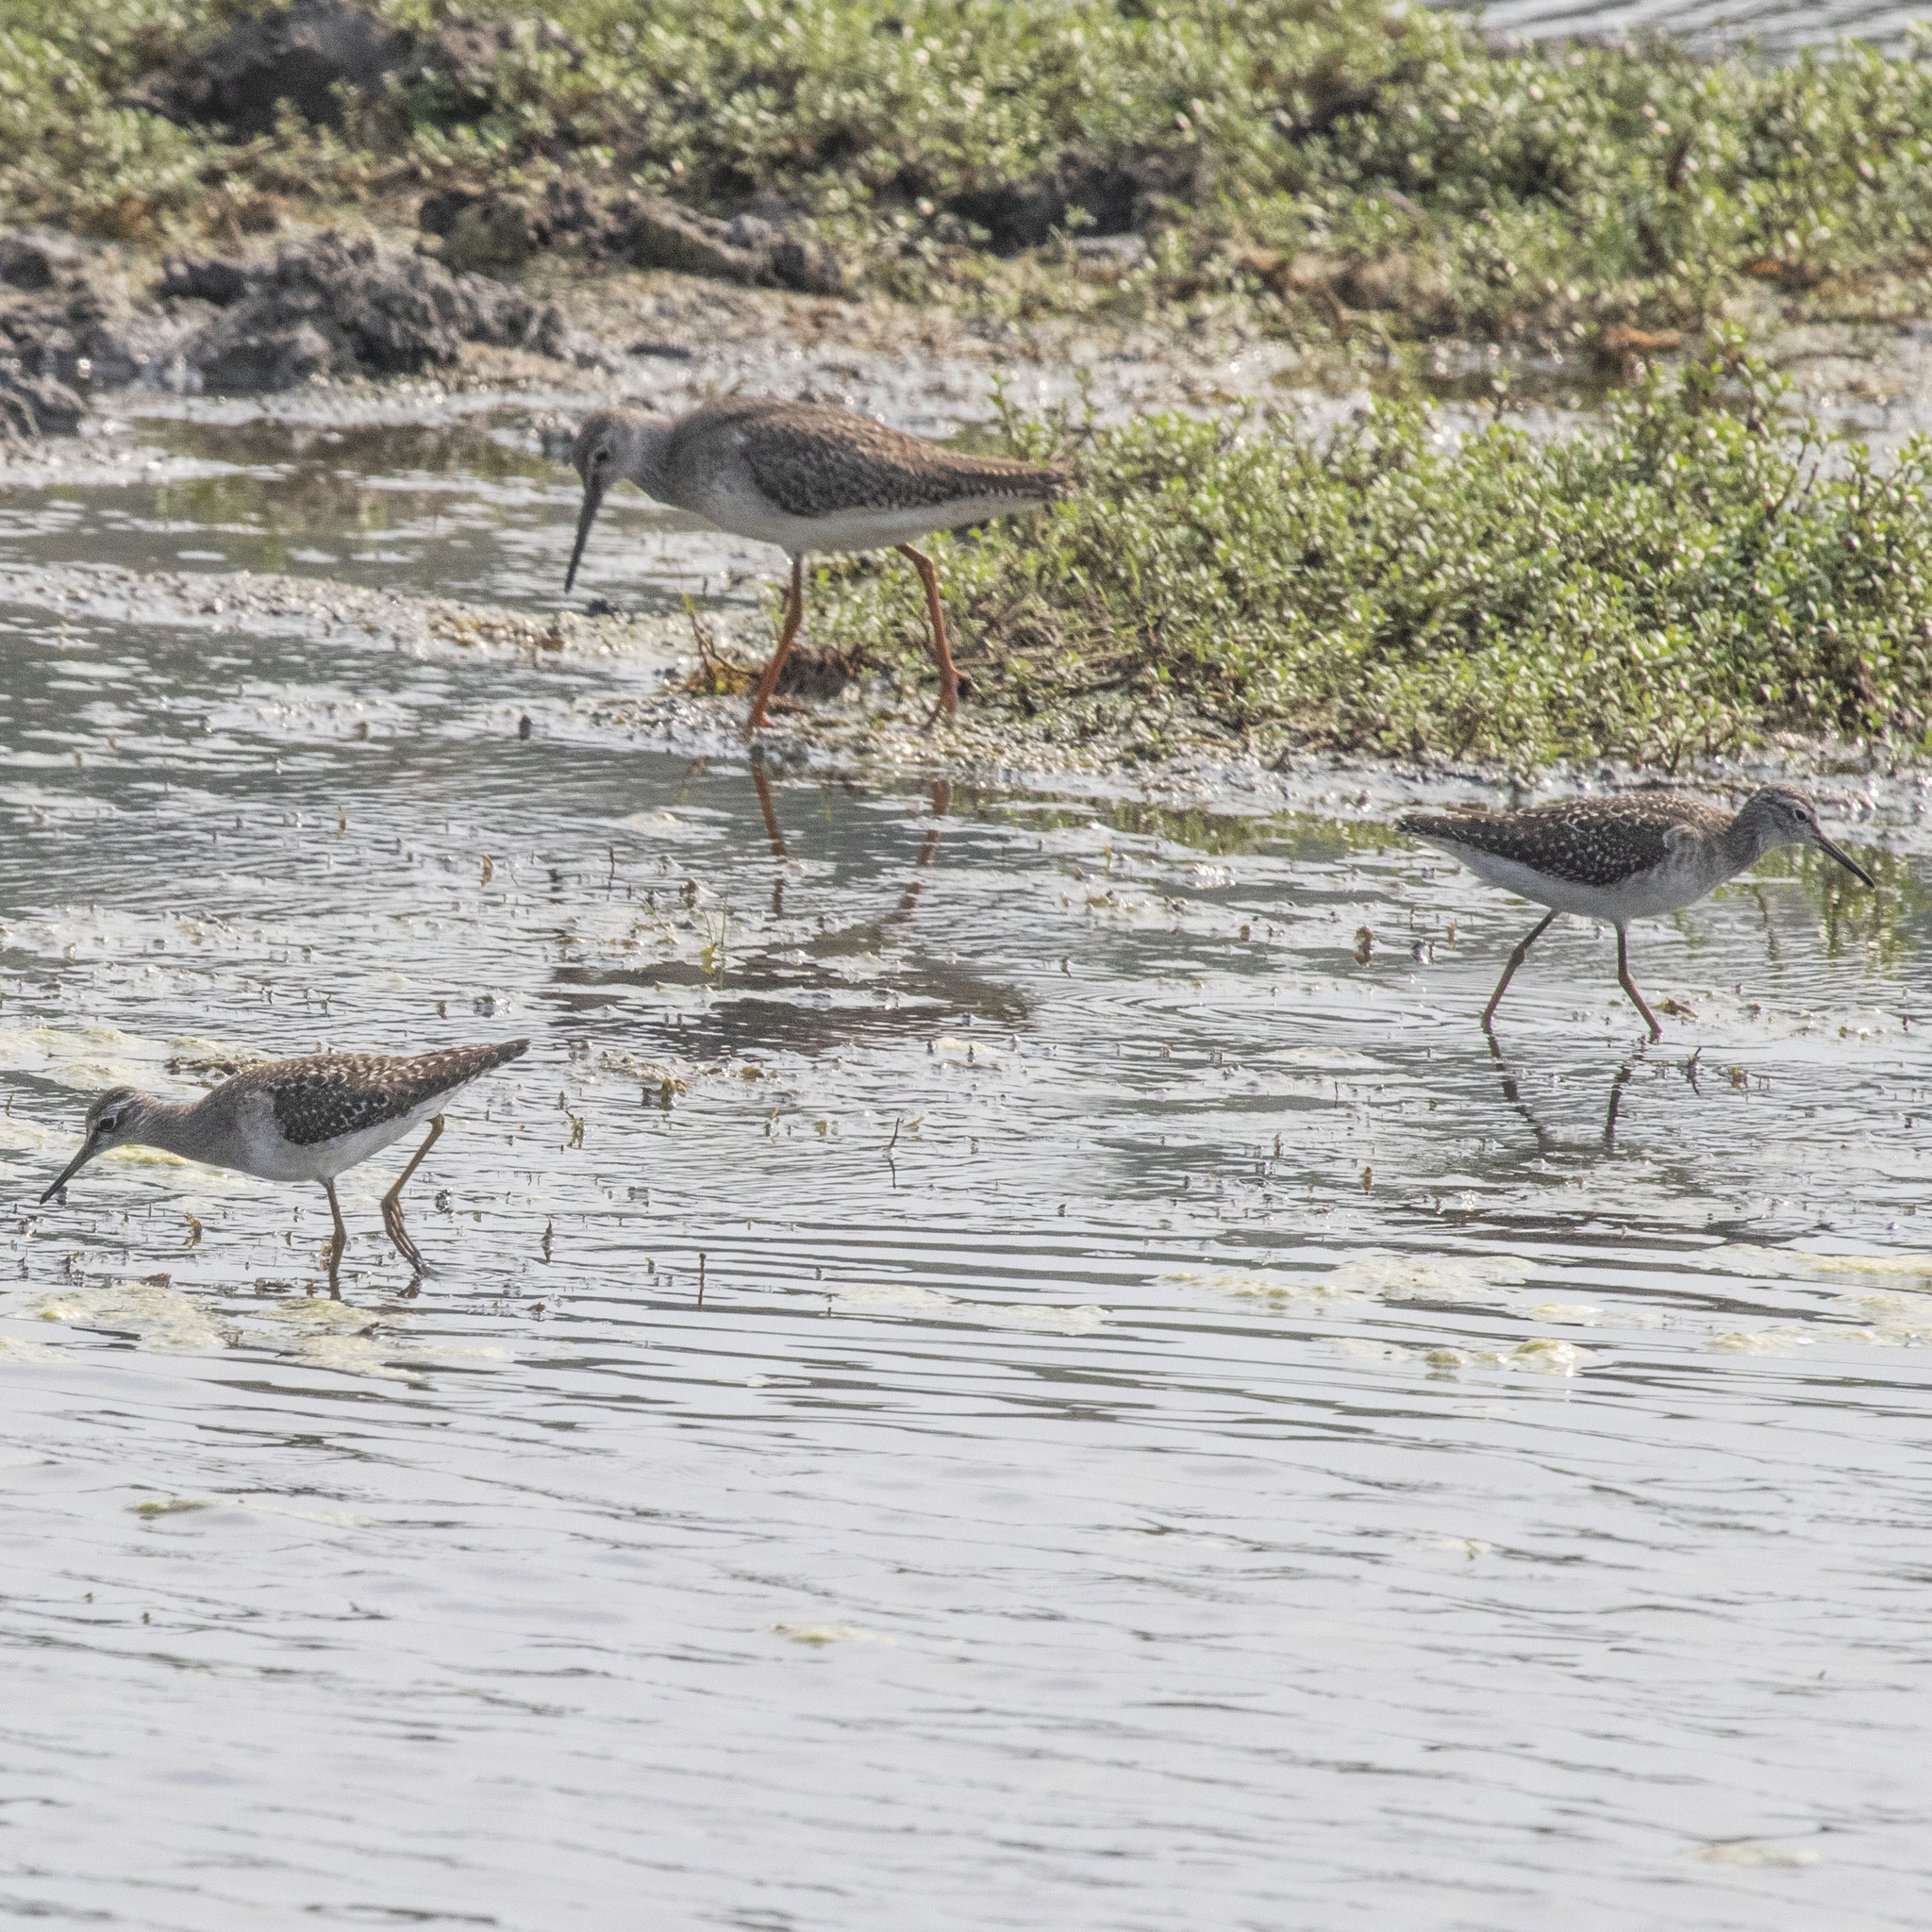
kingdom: Animalia
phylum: Chordata
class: Aves
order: Charadriiformes
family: Scolopacidae
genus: Tringa
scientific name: Tringa glareola
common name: Wood sandpiper
